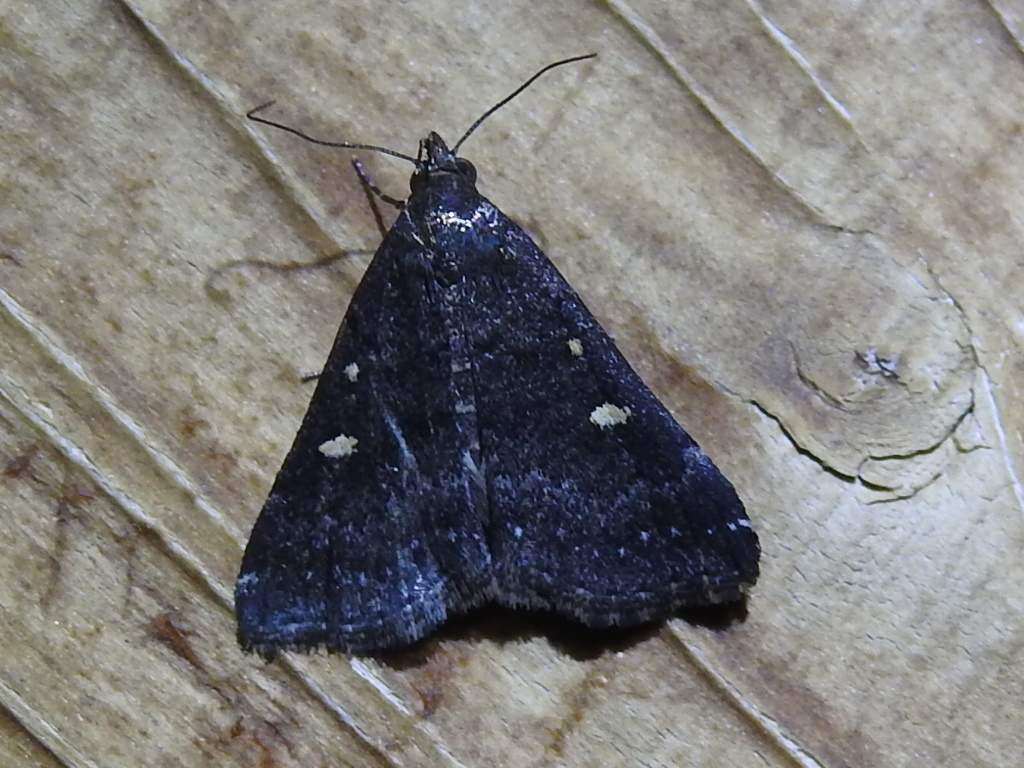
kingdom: Animalia
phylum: Arthropoda
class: Insecta
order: Lepidoptera
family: Erebidae
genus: Tetanolita
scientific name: Tetanolita mynesalis
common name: Smoky tetanolita moth
